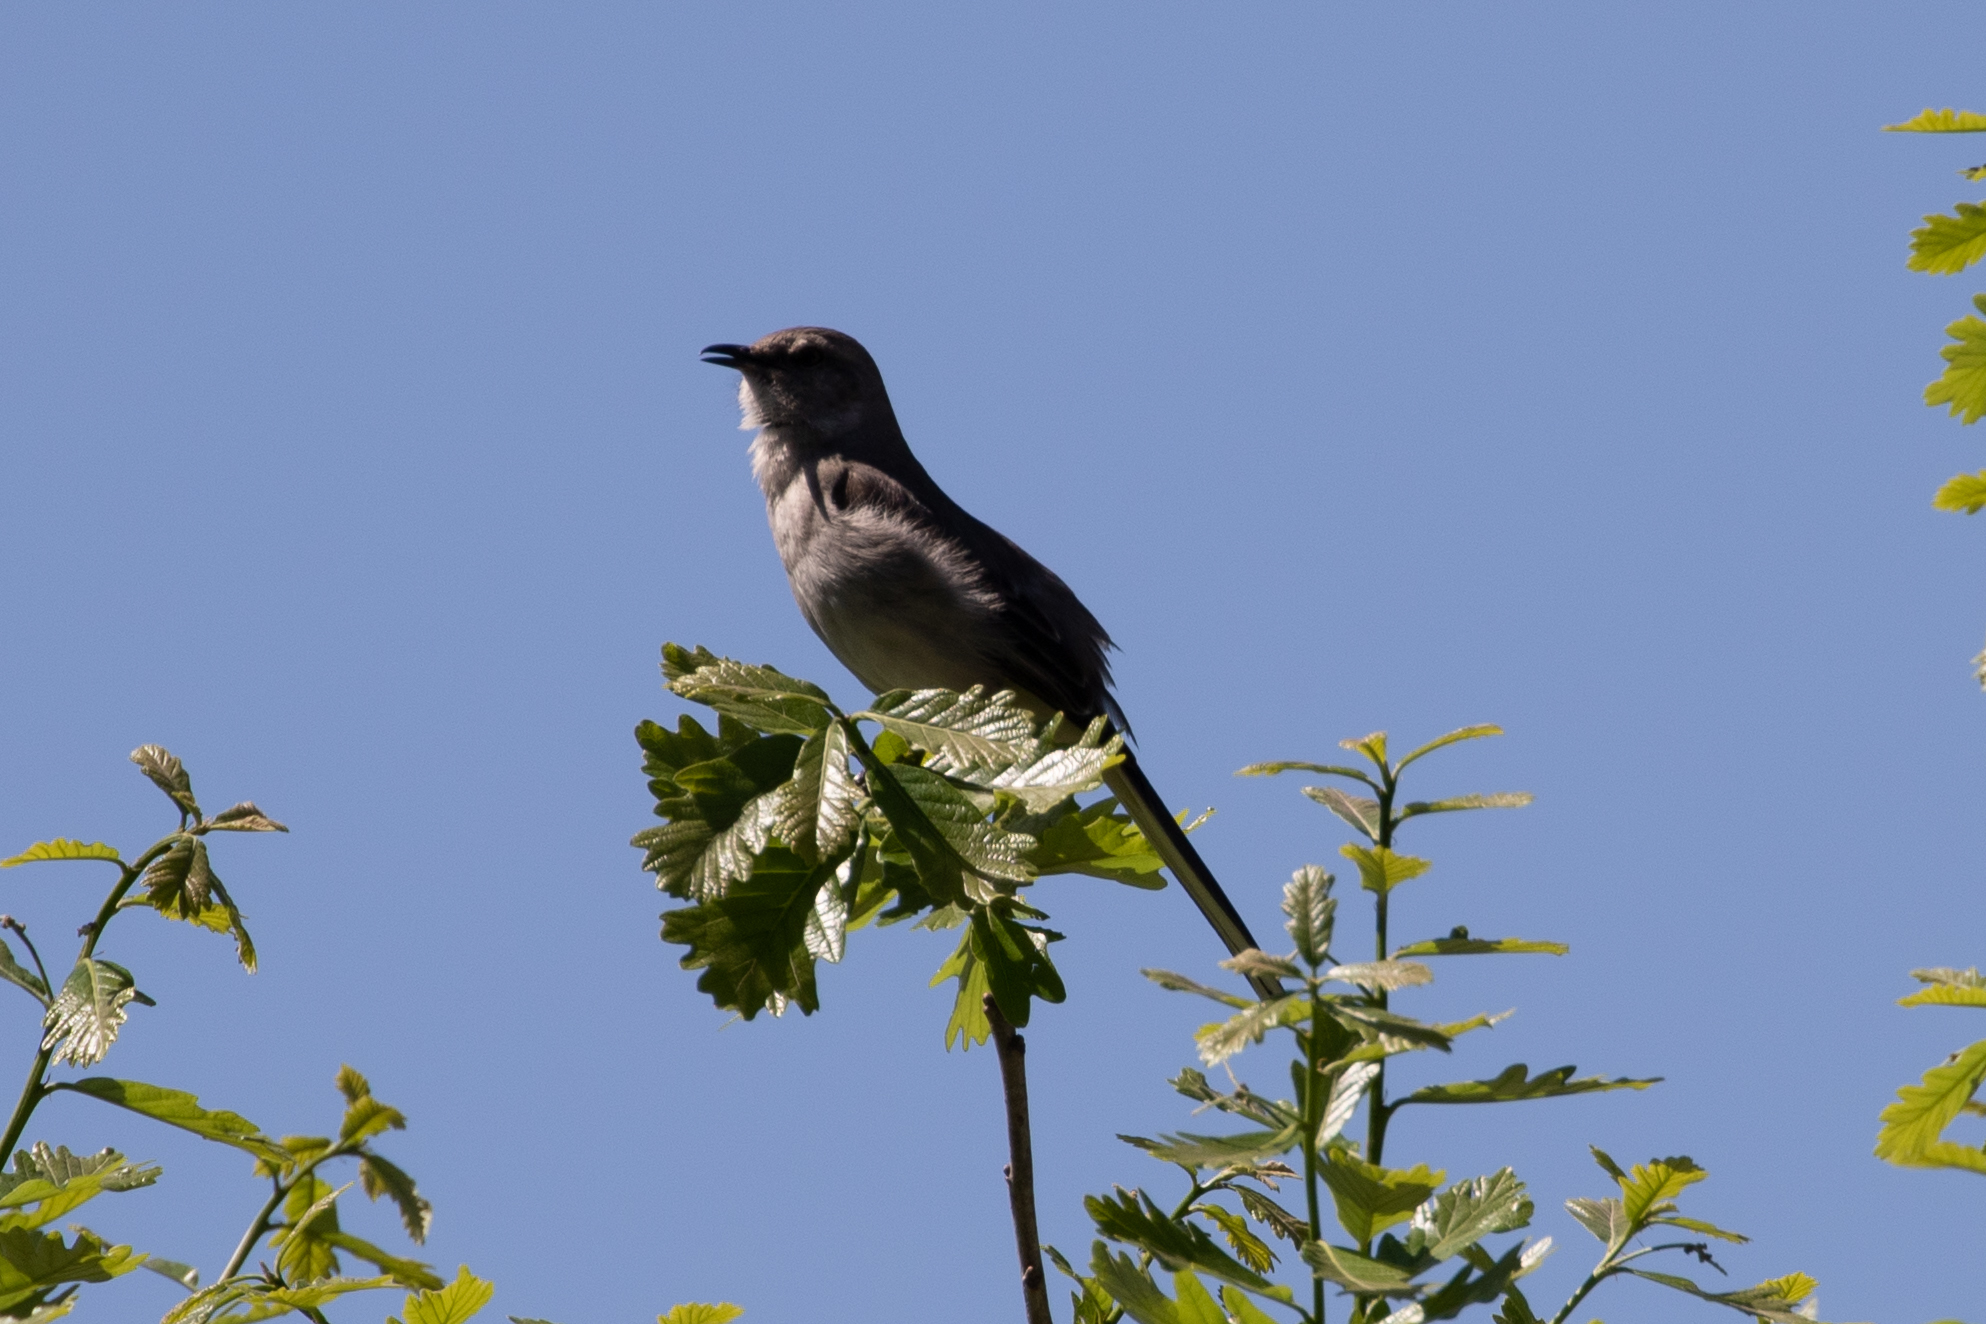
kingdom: Animalia
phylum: Chordata
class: Aves
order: Passeriformes
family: Mimidae
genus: Mimus
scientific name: Mimus polyglottos
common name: Northern mockingbird
